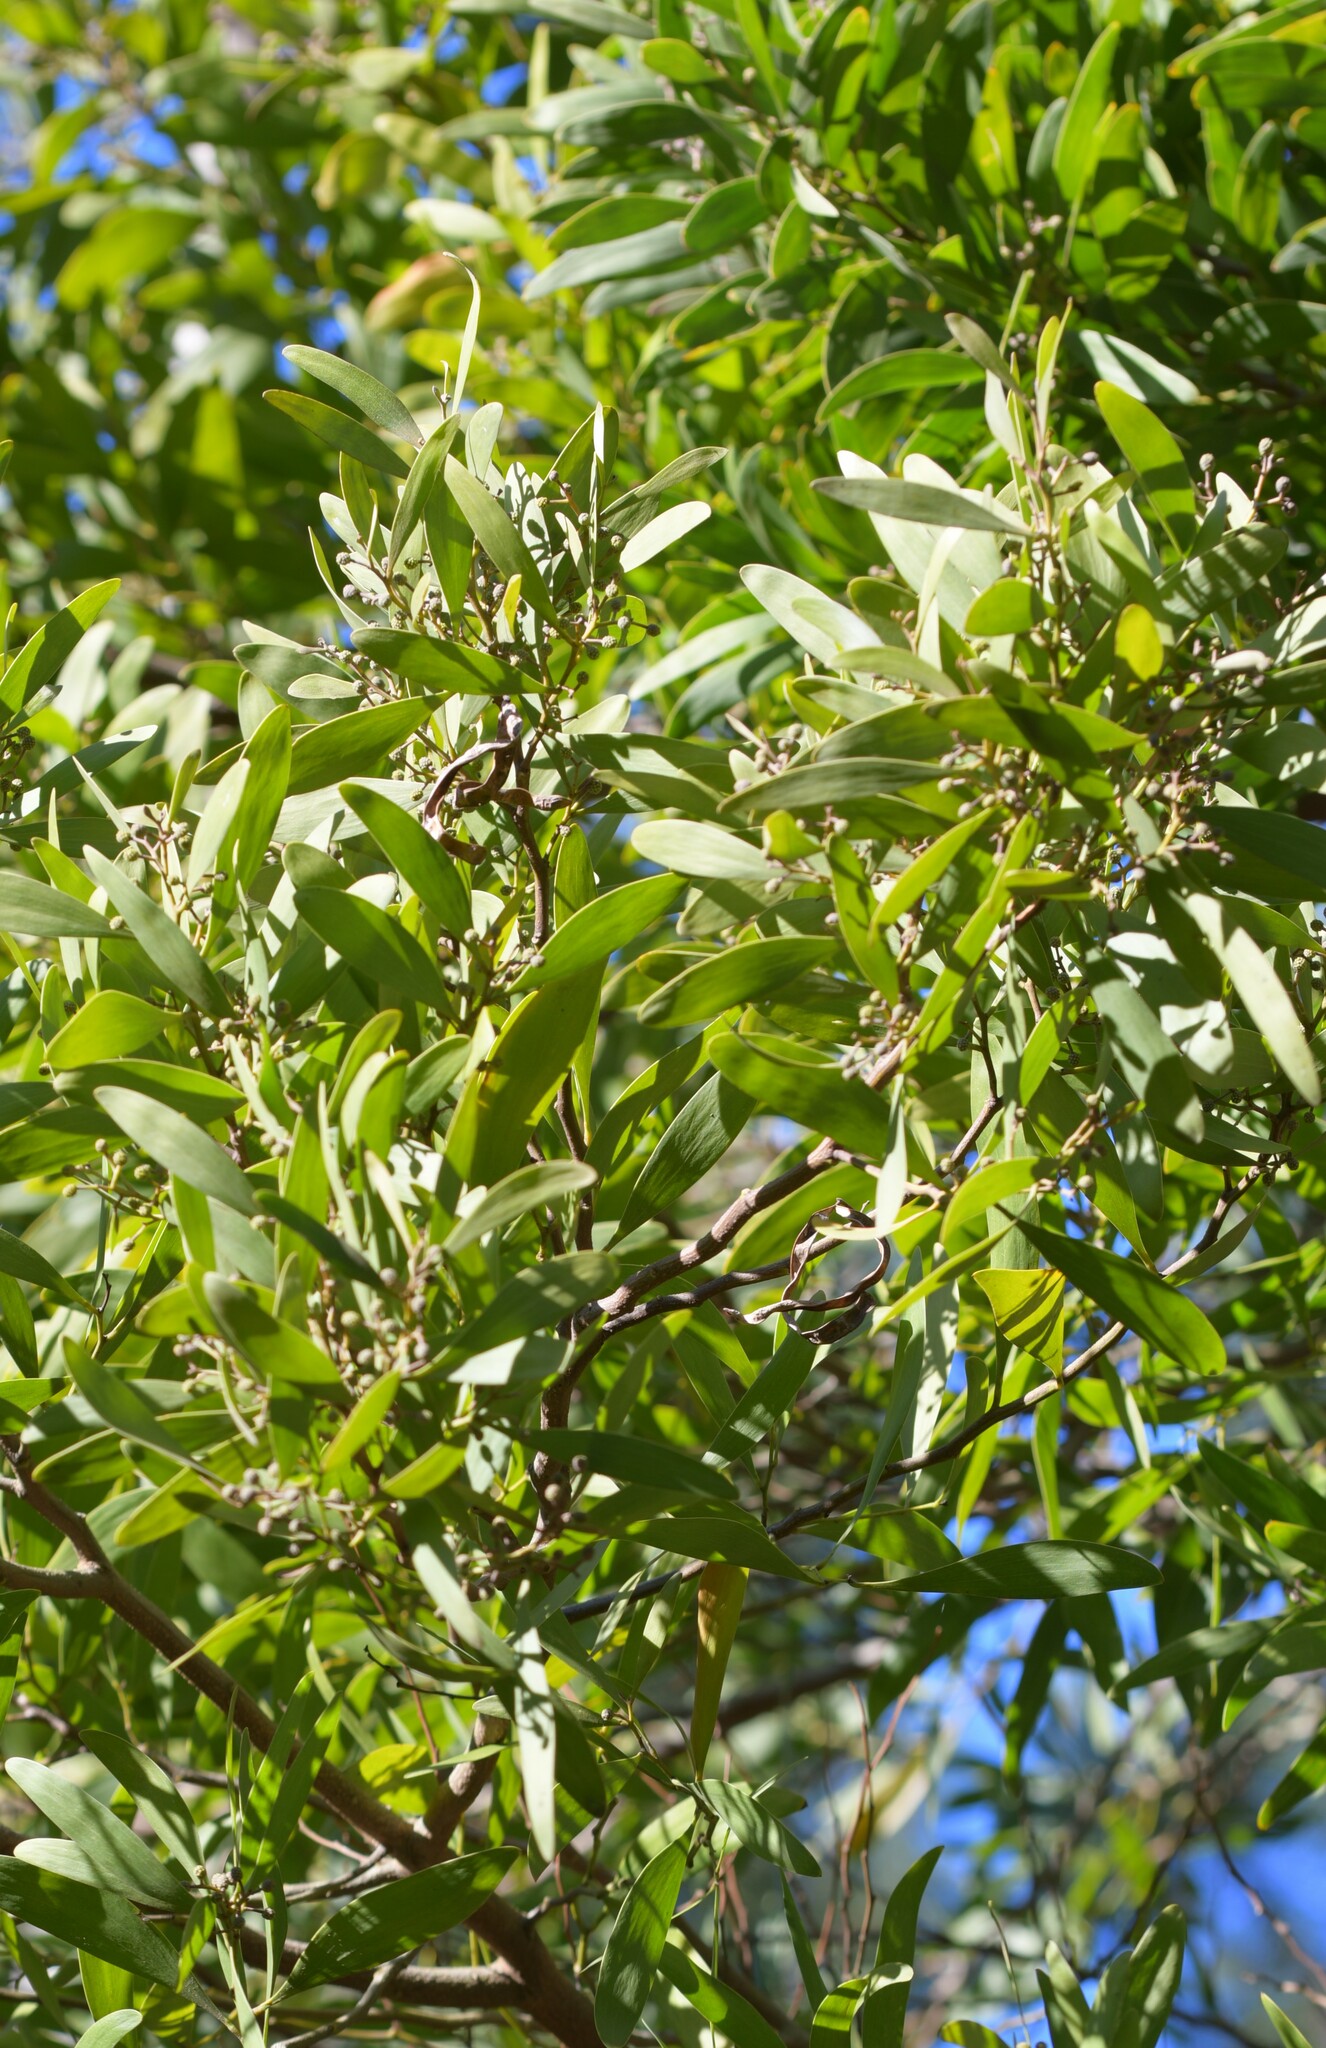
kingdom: Plantae
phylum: Tracheophyta
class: Magnoliopsida
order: Fabales
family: Fabaceae
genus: Acacia
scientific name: Acacia melanoxylon
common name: Blackwood
